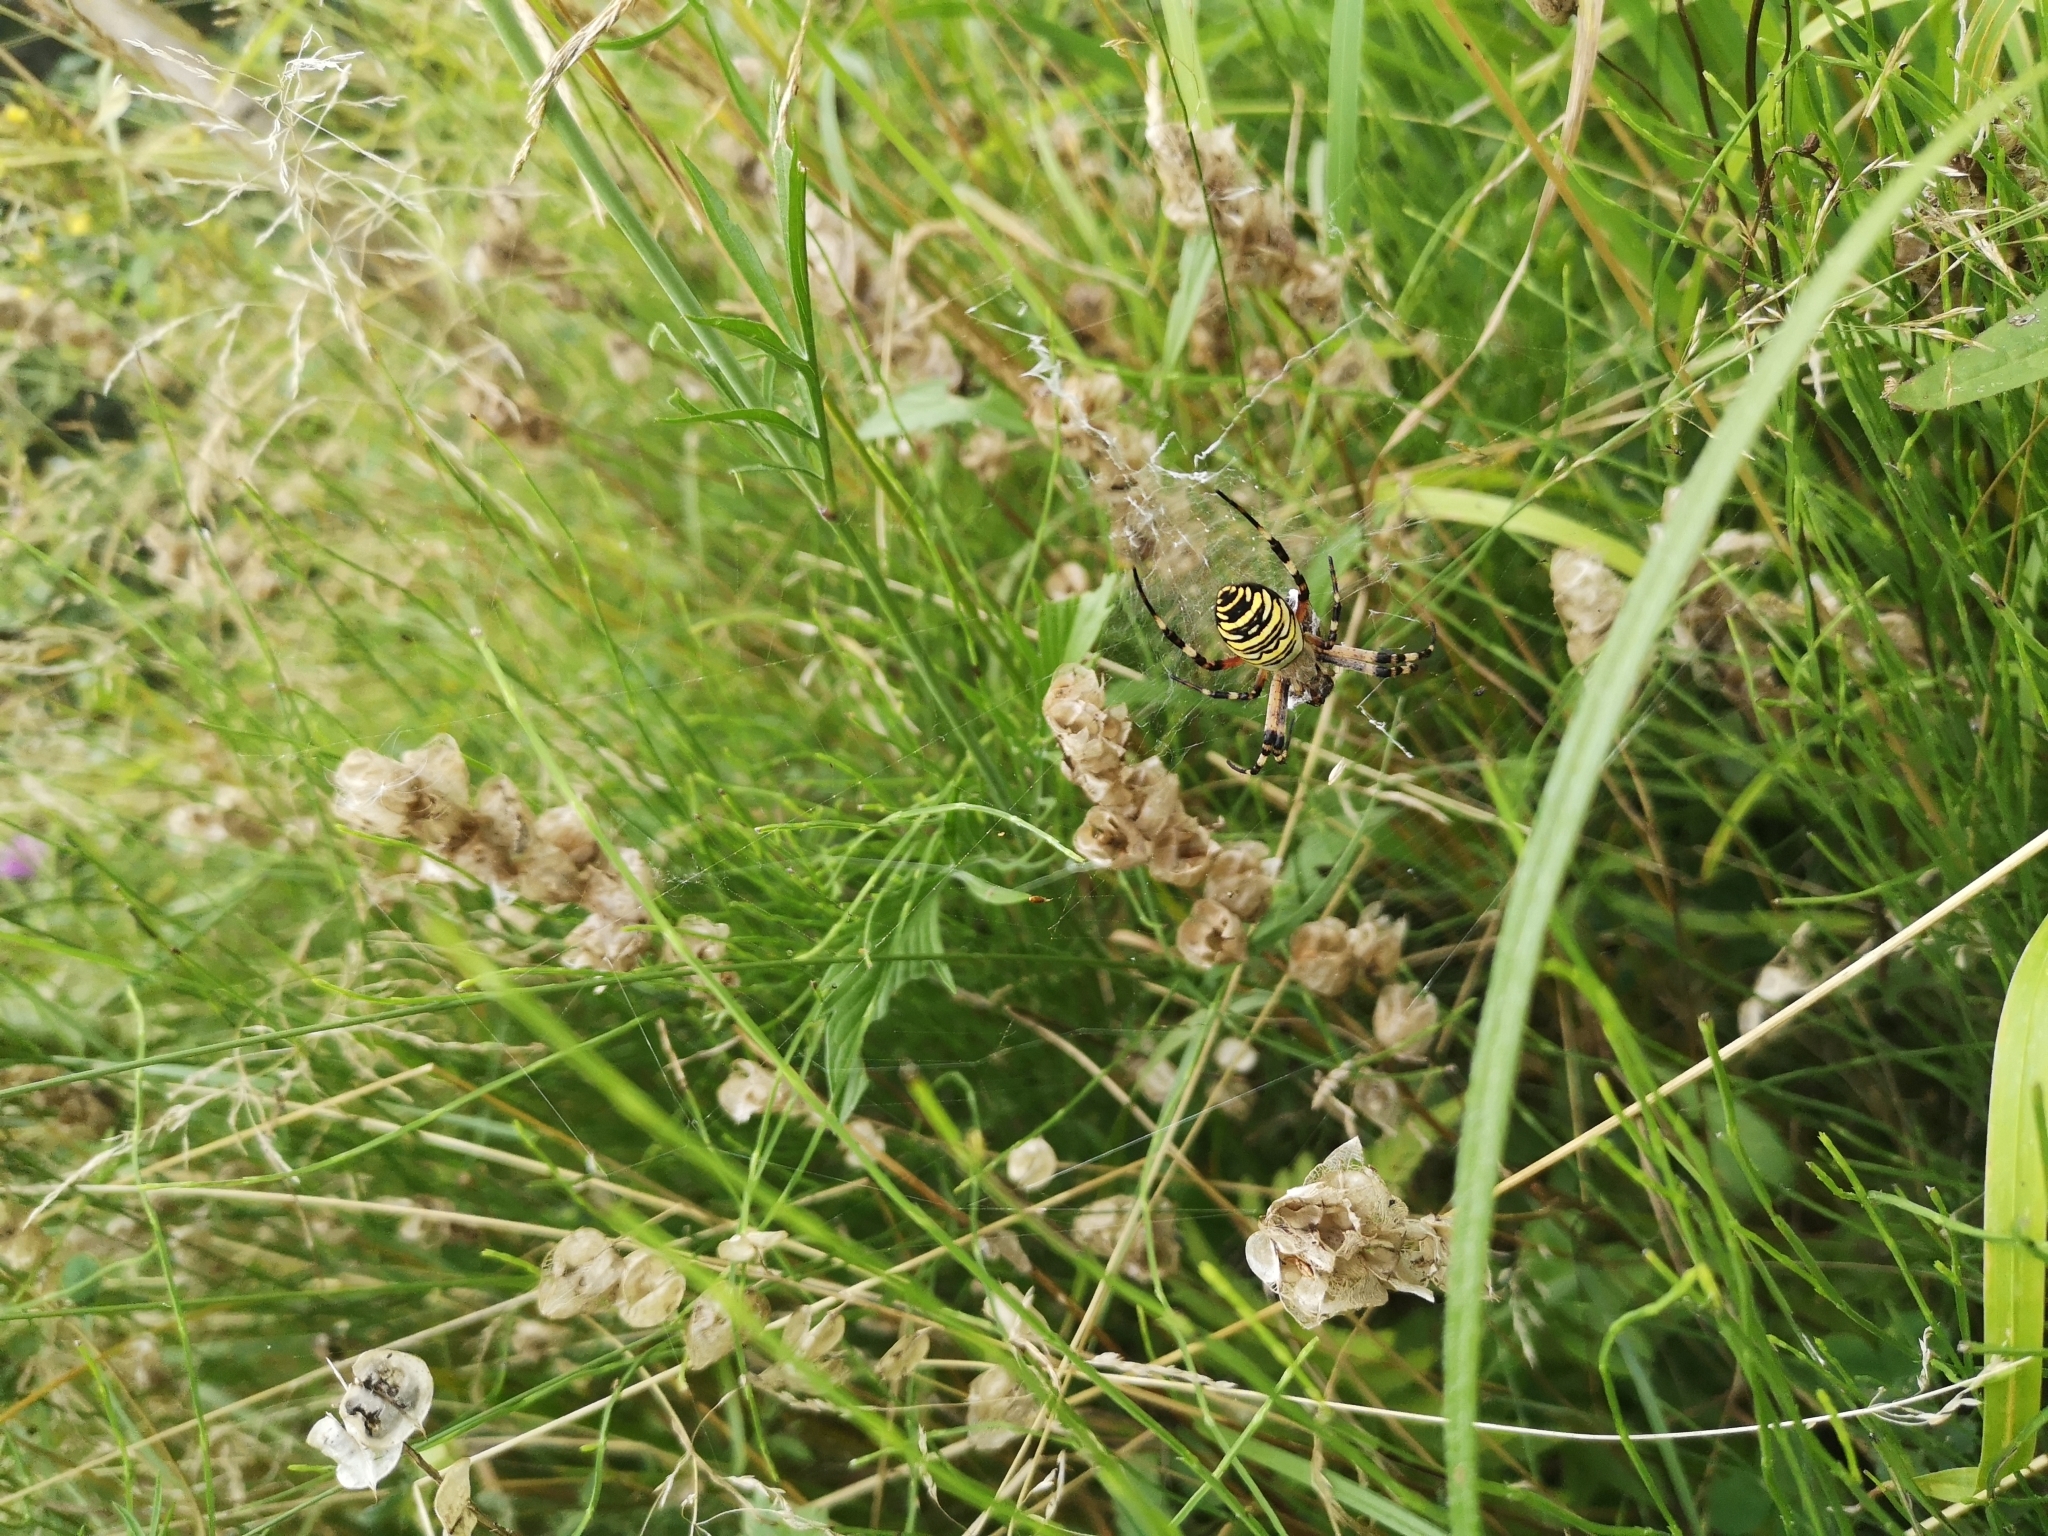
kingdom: Animalia
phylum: Arthropoda
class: Arachnida
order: Araneae
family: Araneidae
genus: Argiope
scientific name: Argiope bruennichi
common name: Wasp spider
